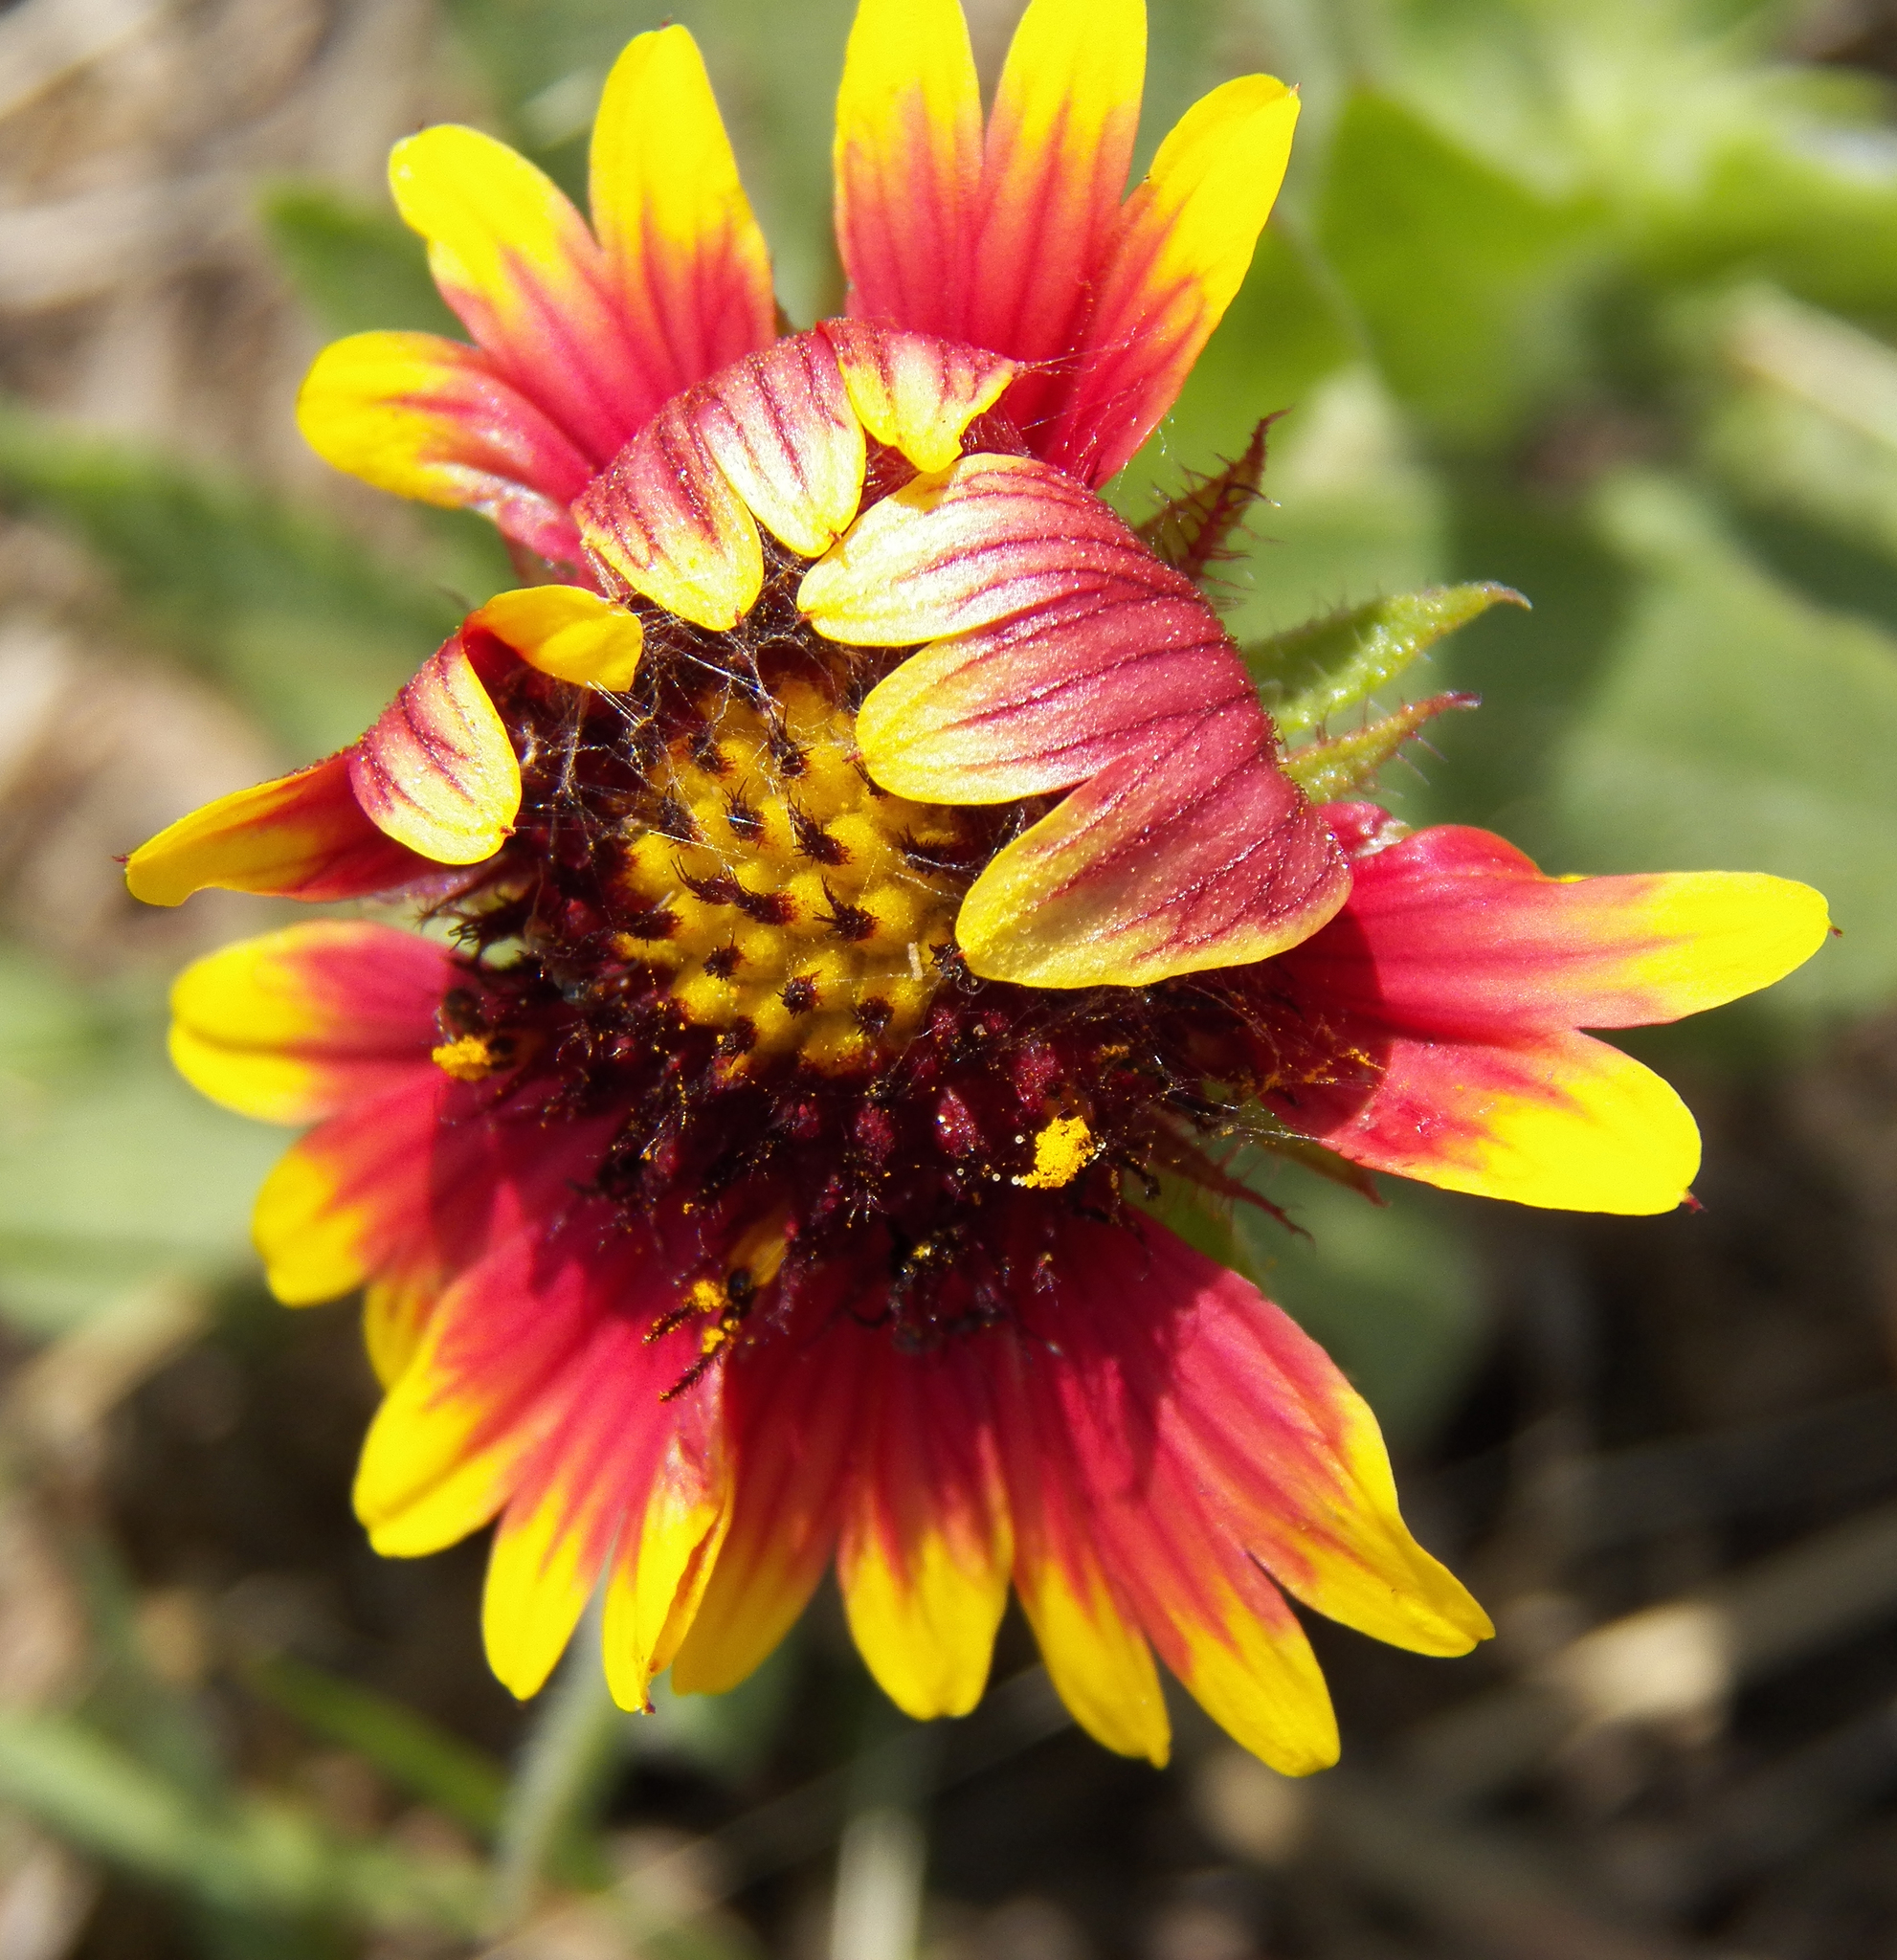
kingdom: Plantae
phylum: Tracheophyta
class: Magnoliopsida
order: Asterales
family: Asteraceae
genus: Gaillardia
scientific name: Gaillardia pulchella
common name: Firewheel
